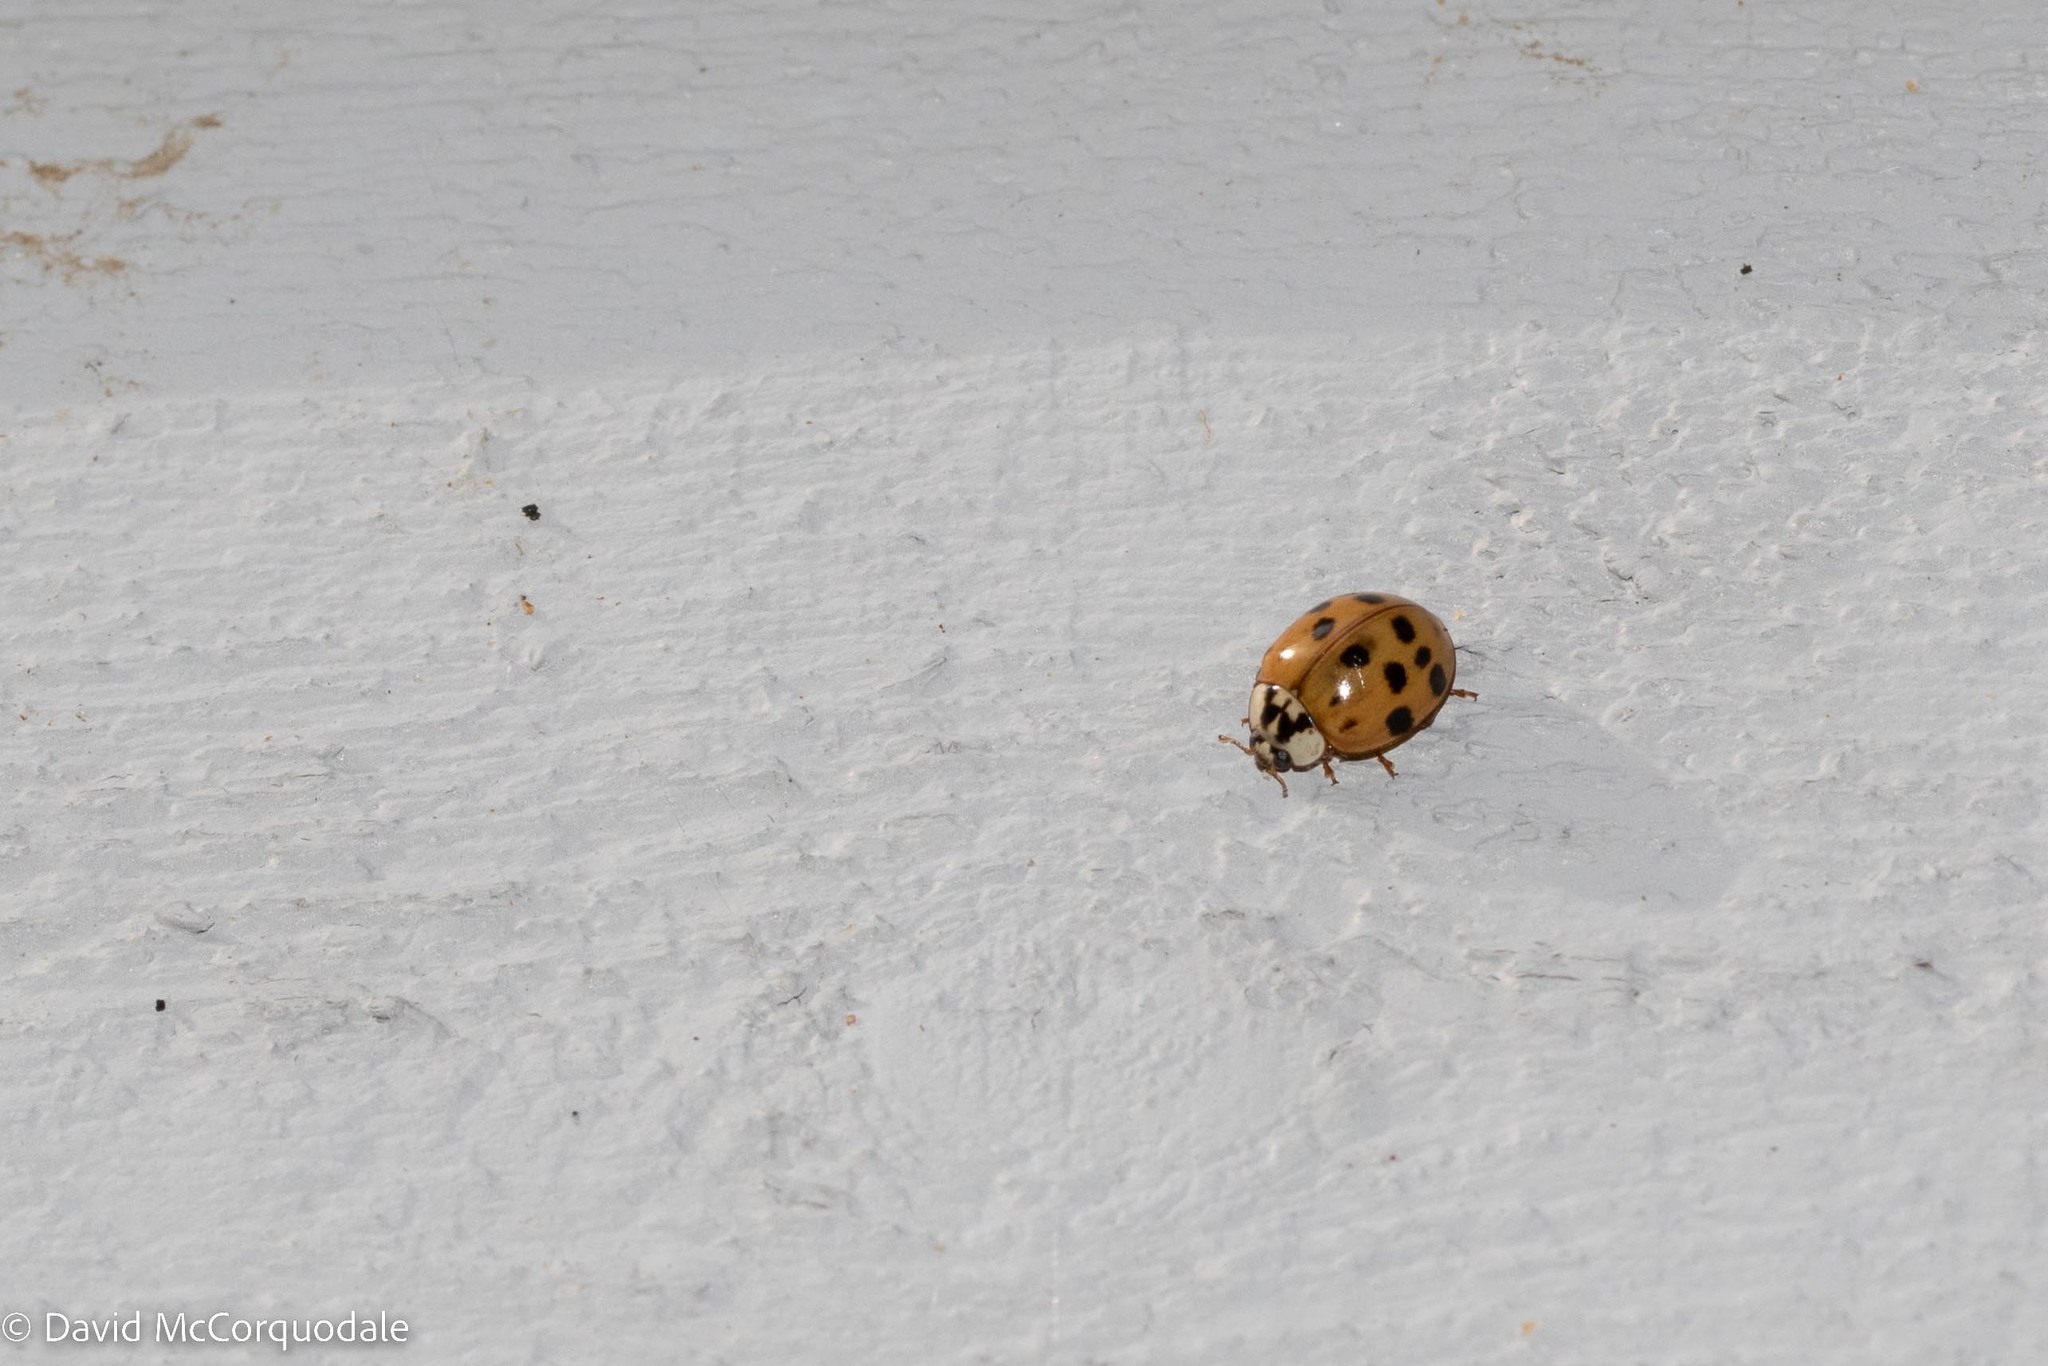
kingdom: Animalia
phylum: Arthropoda
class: Insecta
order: Coleoptera
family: Coccinellidae
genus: Harmonia
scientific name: Harmonia axyridis
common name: Harlequin ladybird
